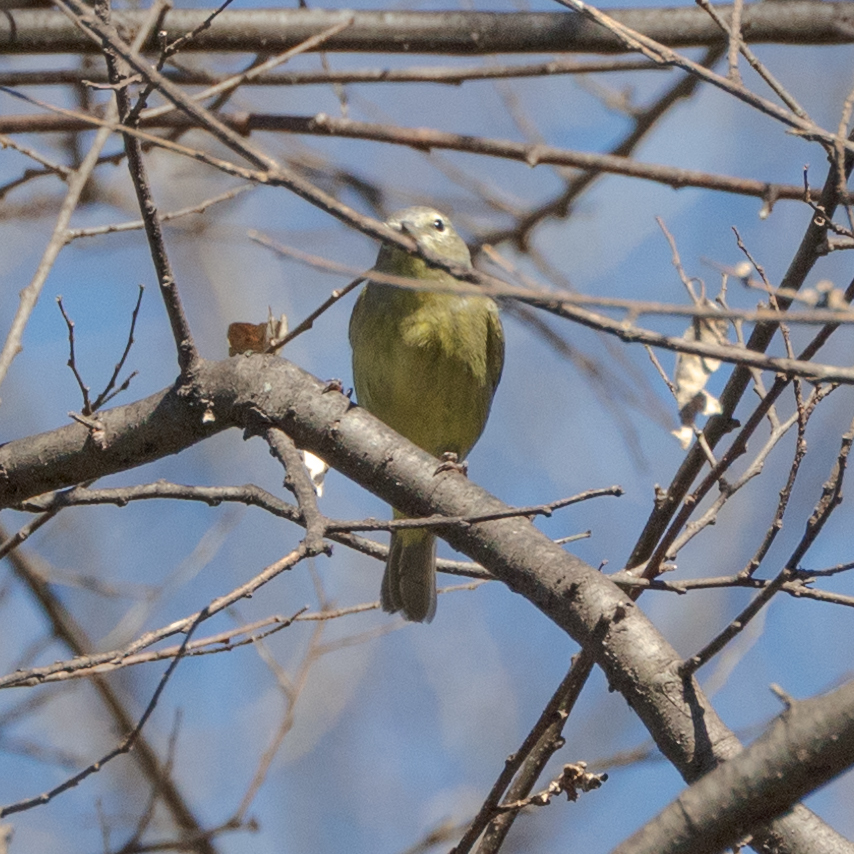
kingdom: Animalia
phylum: Chordata
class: Aves
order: Passeriformes
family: Parulidae
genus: Leiothlypis
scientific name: Leiothlypis celata
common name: Orange-crowned warbler
